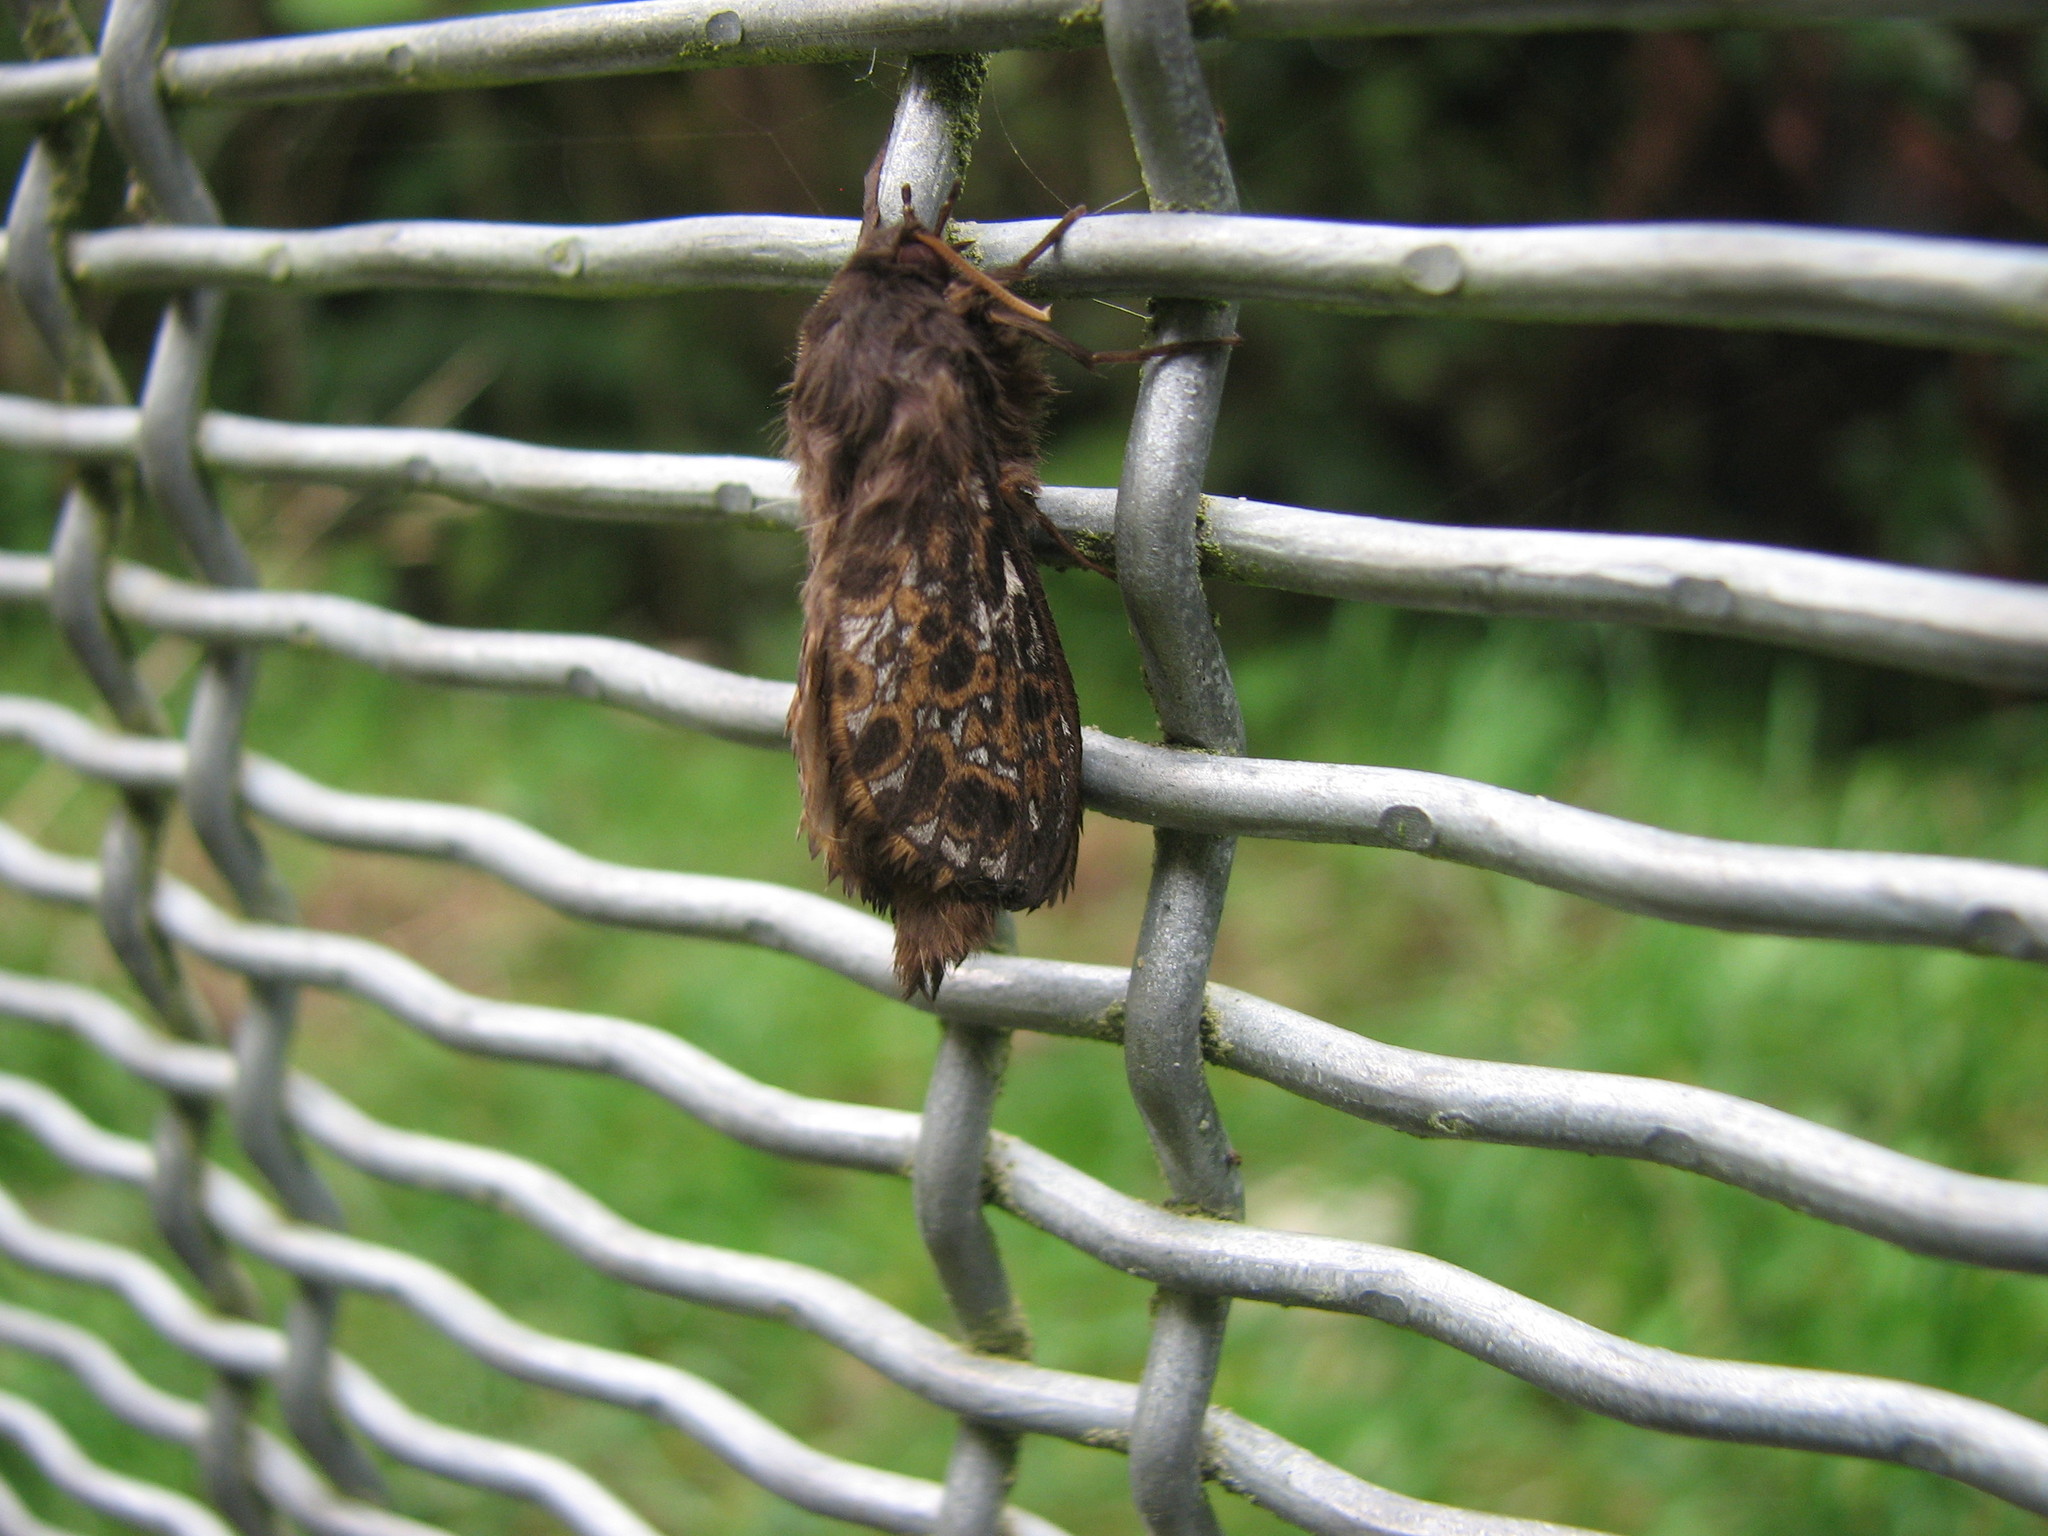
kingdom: Animalia
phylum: Arthropoda
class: Insecta
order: Lepidoptera
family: Hepialidae
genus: Cladoxycanus
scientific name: Cladoxycanus minos
